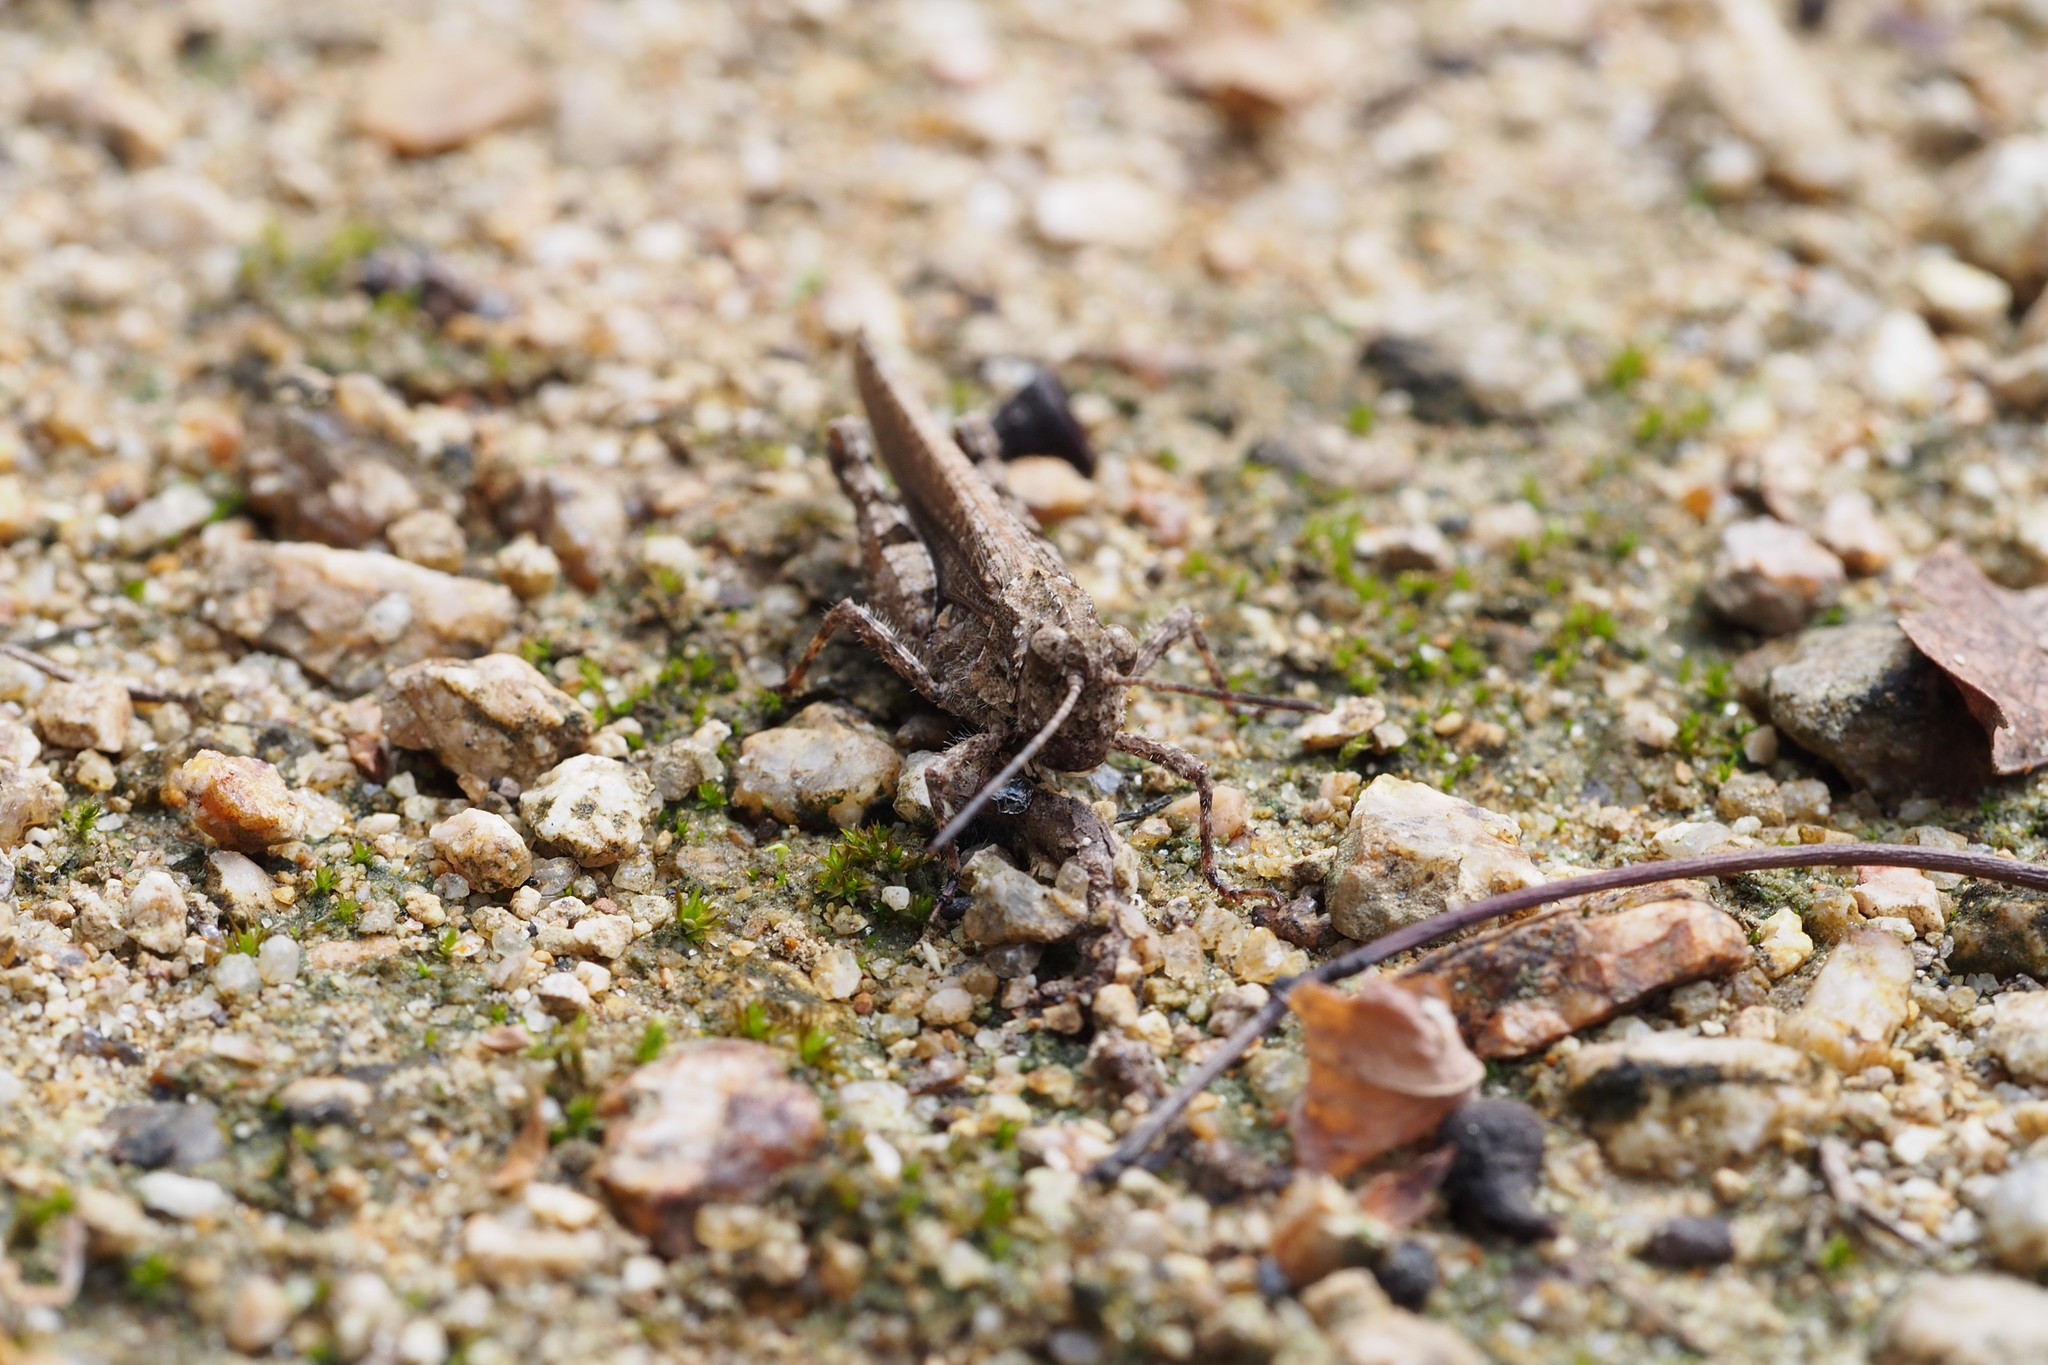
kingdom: Animalia
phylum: Arthropoda
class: Insecta
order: Orthoptera
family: Acrididae
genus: Trilophidia
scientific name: Trilophidia annulata
